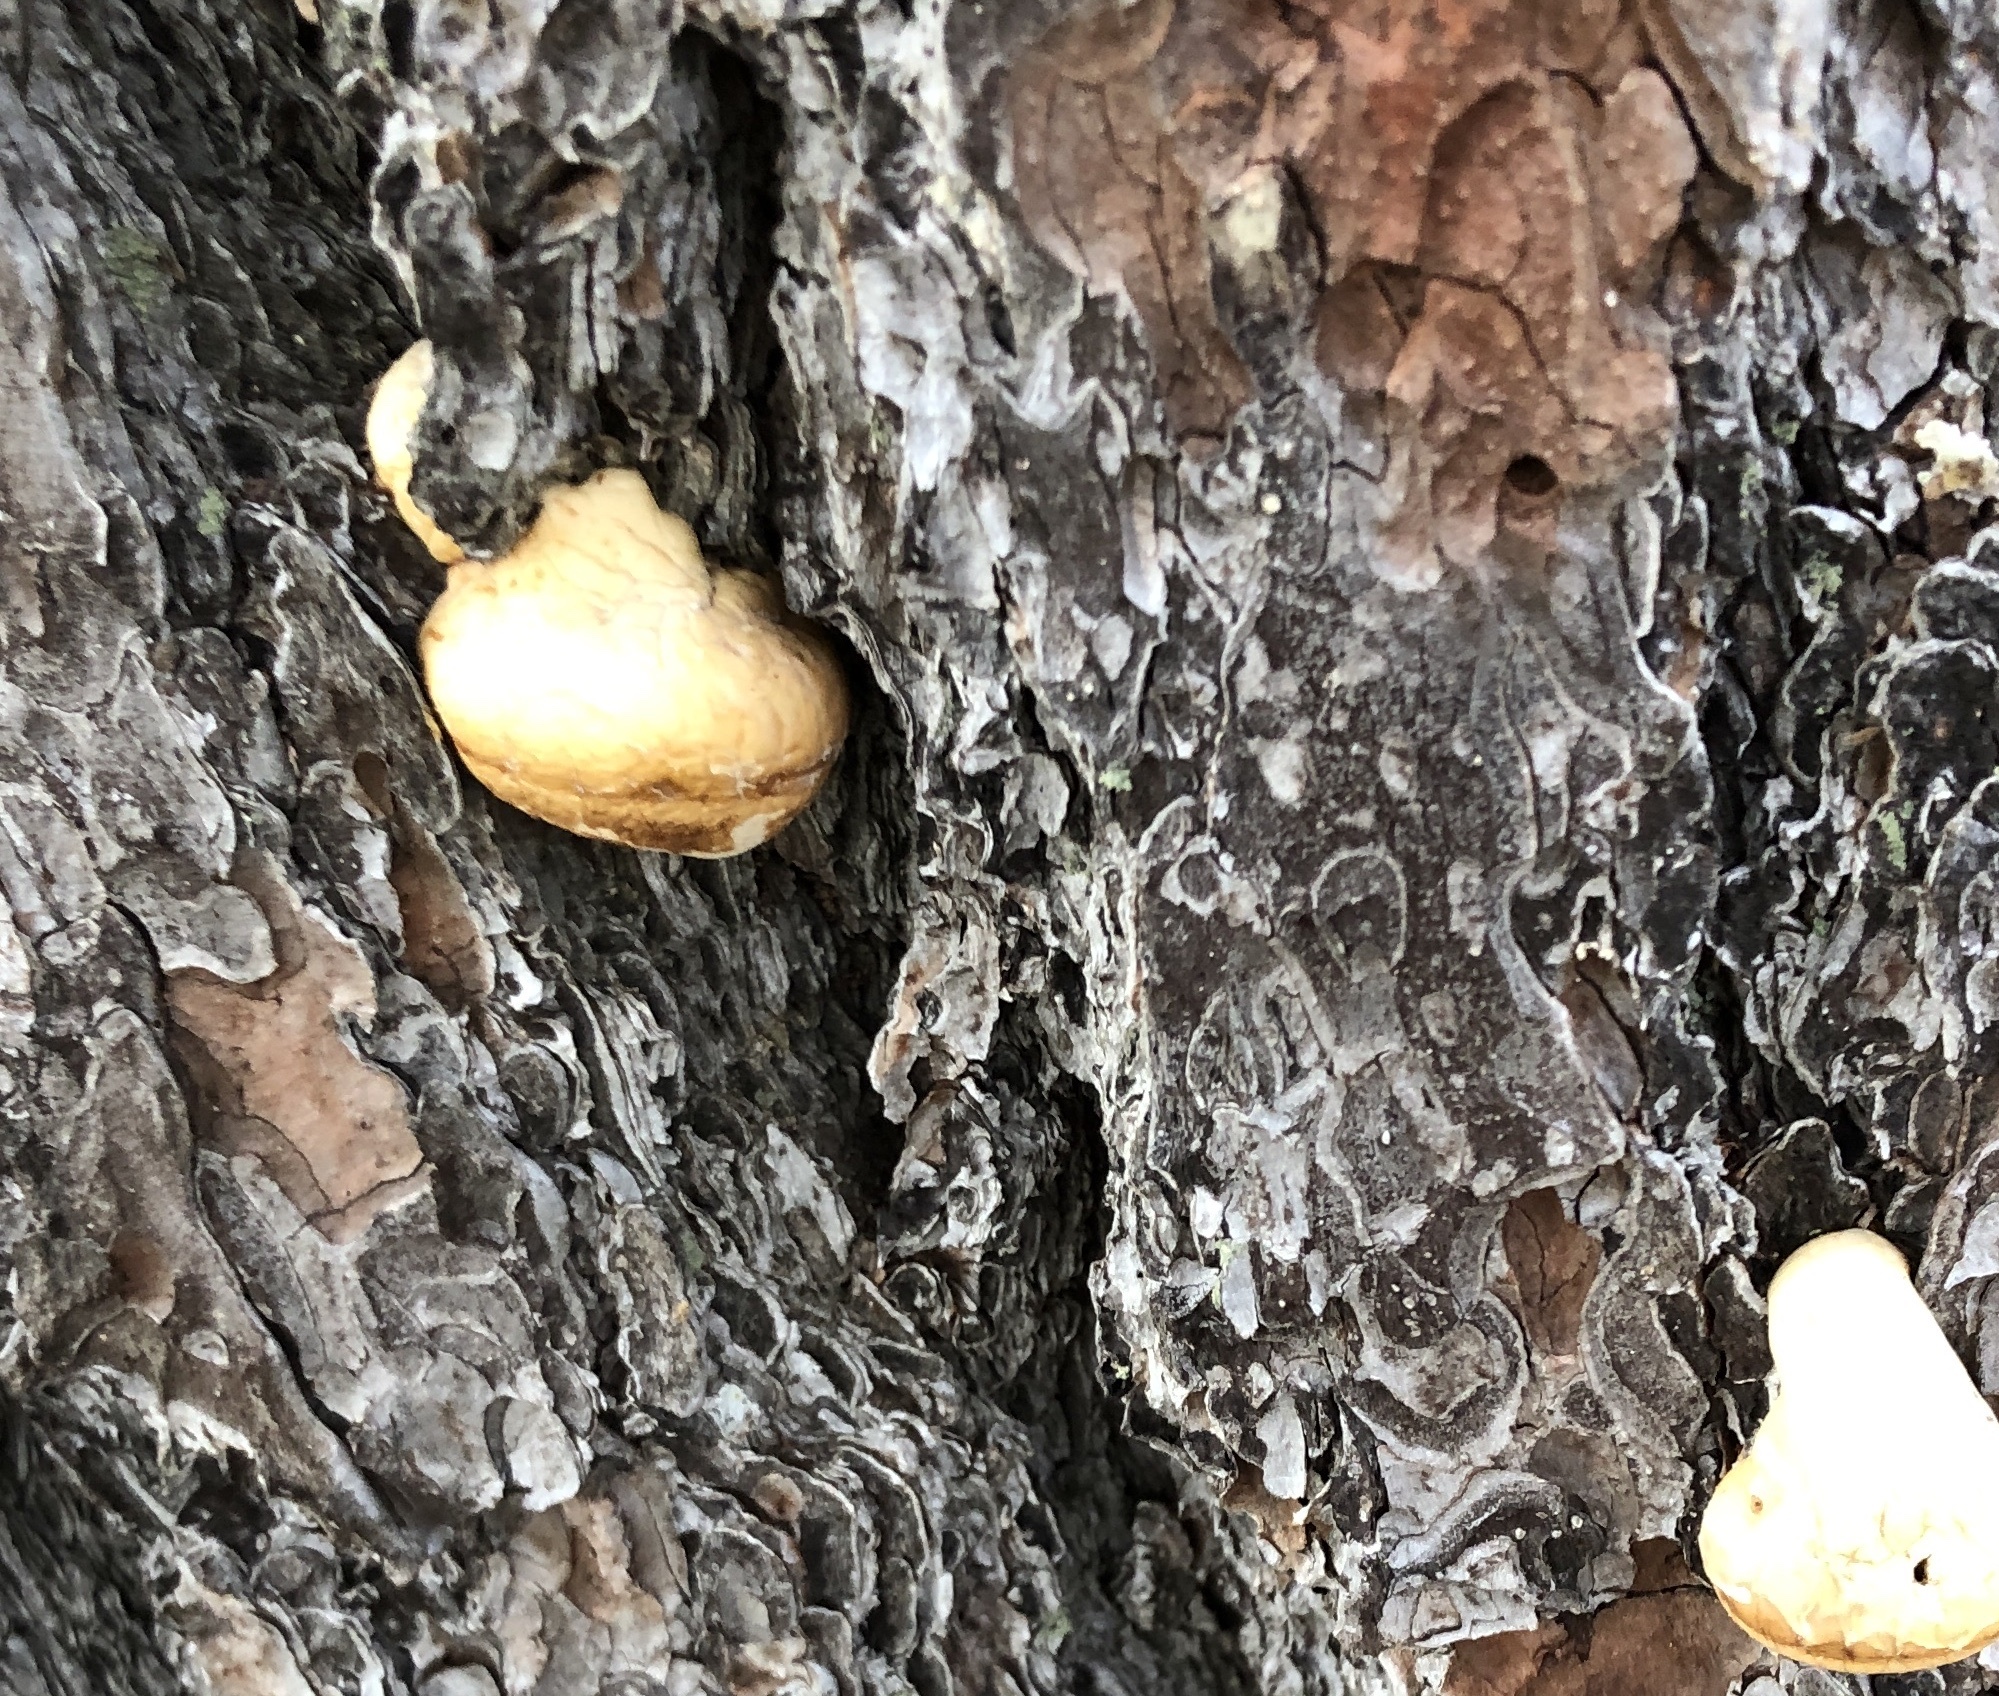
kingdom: Fungi
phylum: Basidiomycota
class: Agaricomycetes
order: Polyporales
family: Polyporaceae
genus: Cryptoporus
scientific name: Cryptoporus volvatus
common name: Veiled polypore
